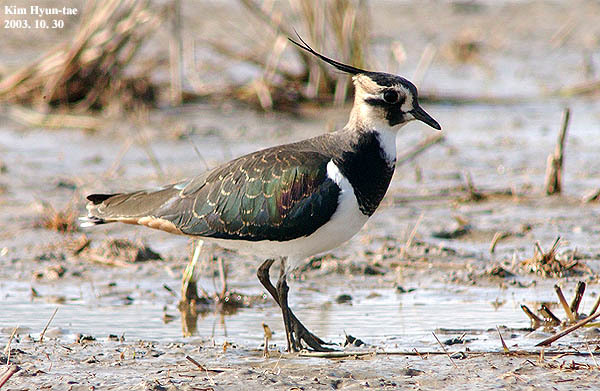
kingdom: Animalia
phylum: Chordata
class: Aves
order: Charadriiformes
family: Charadriidae
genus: Vanellus
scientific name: Vanellus vanellus
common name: Northern lapwing
